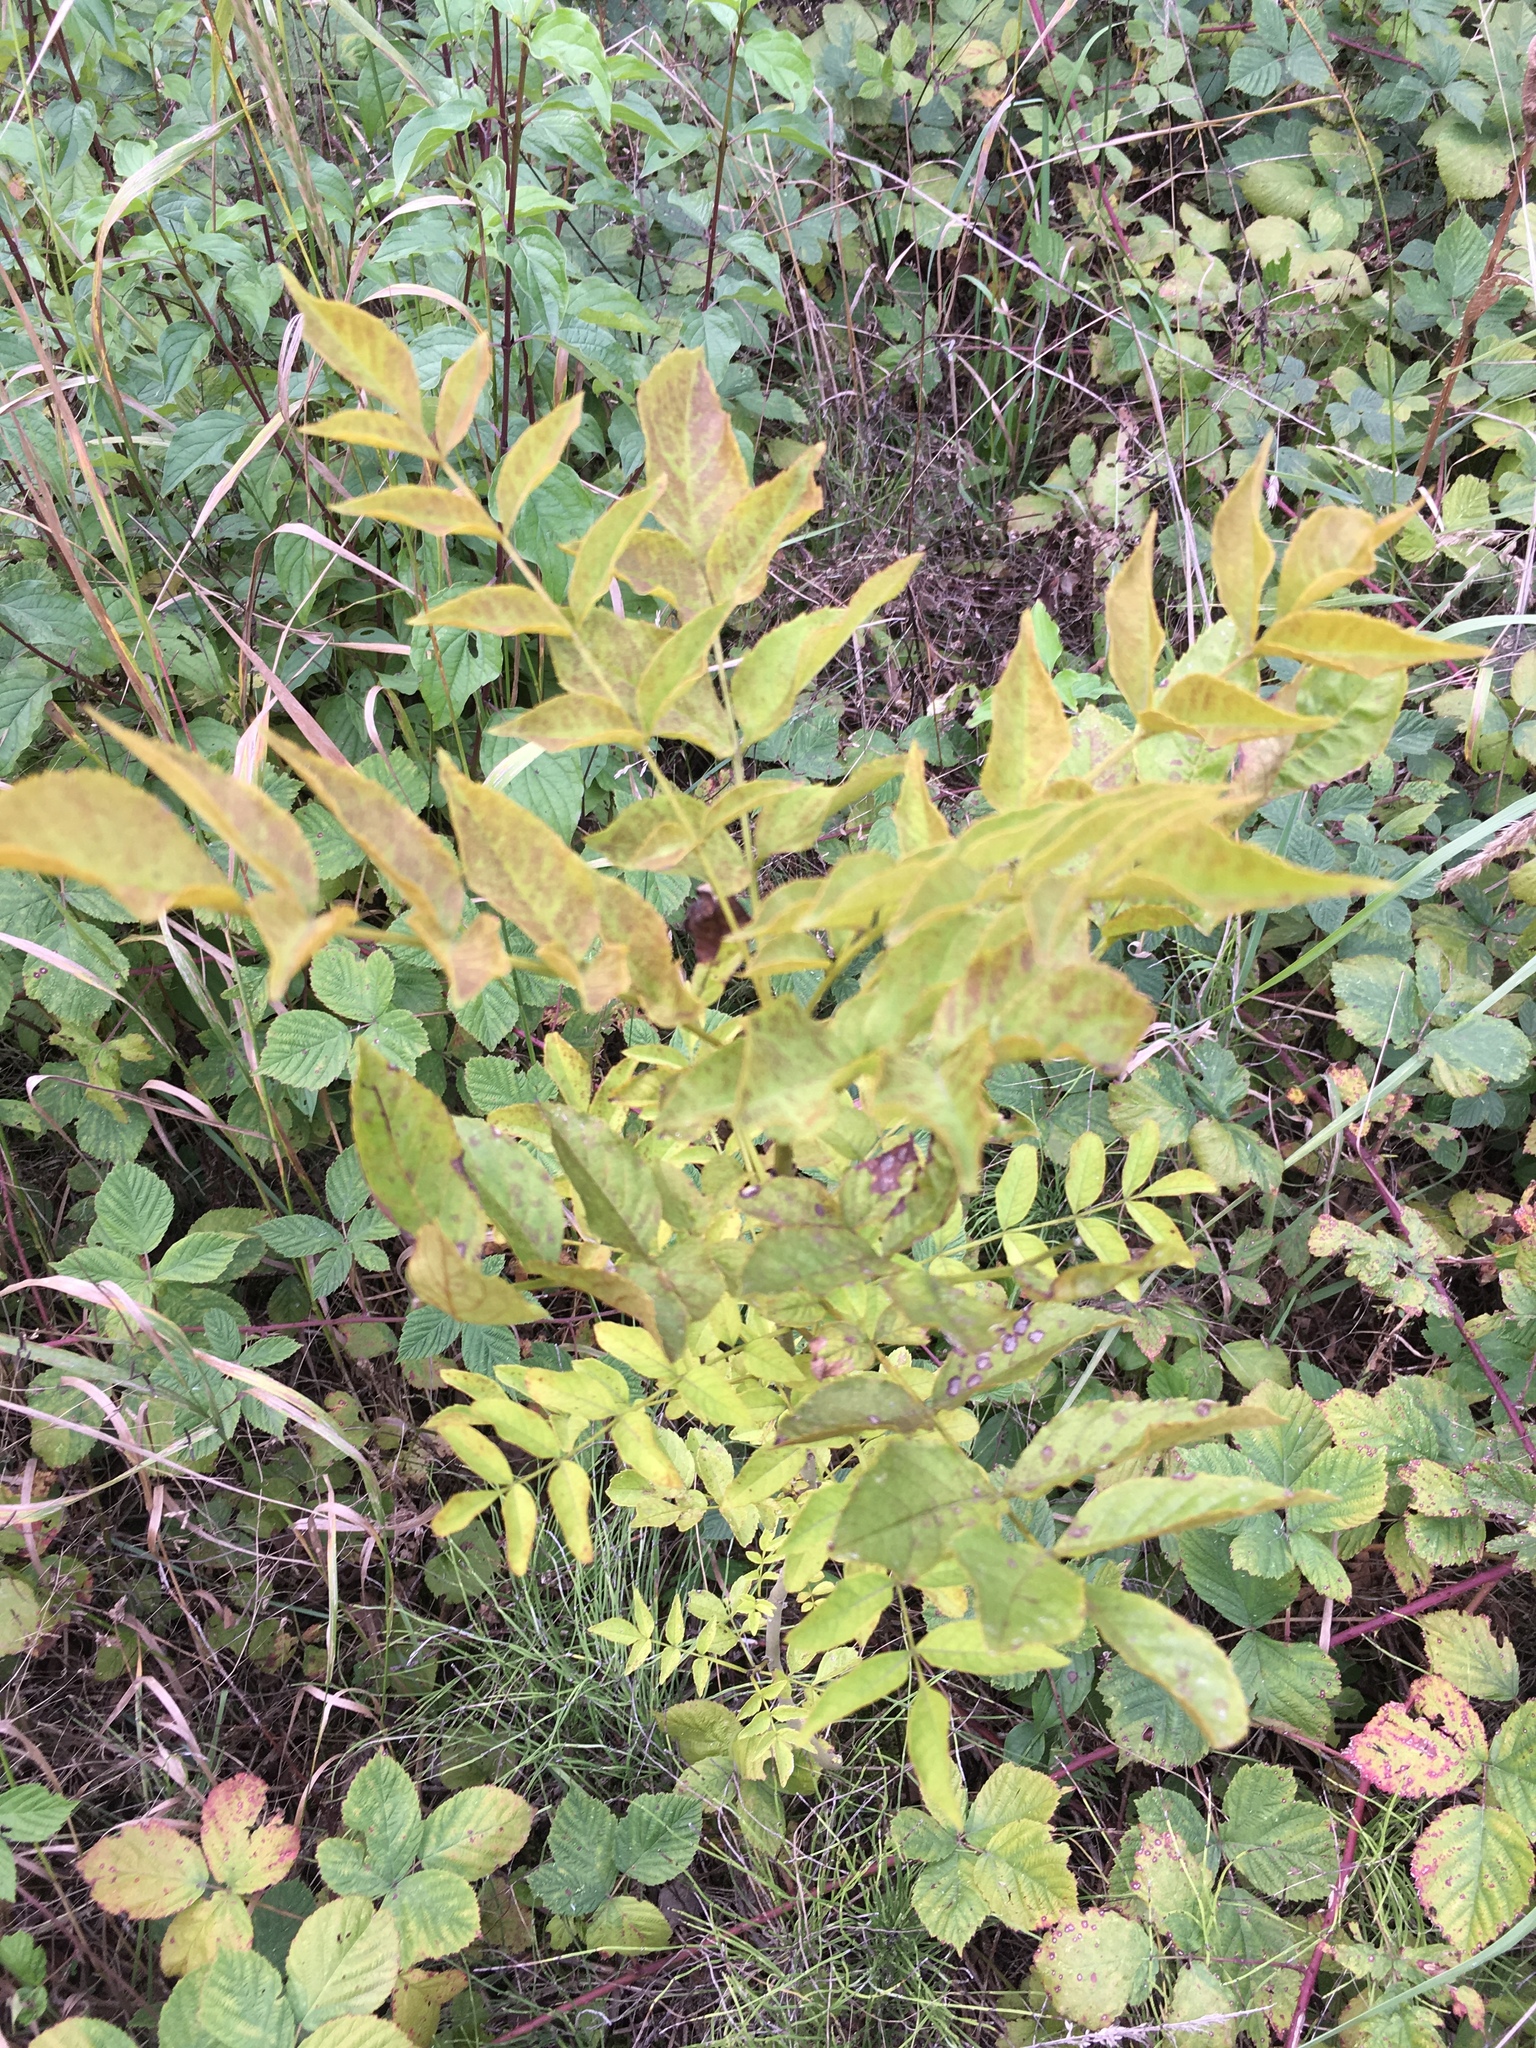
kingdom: Plantae
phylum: Tracheophyta
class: Magnoliopsida
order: Lamiales
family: Oleaceae
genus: Fraxinus
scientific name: Fraxinus excelsior
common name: European ash
